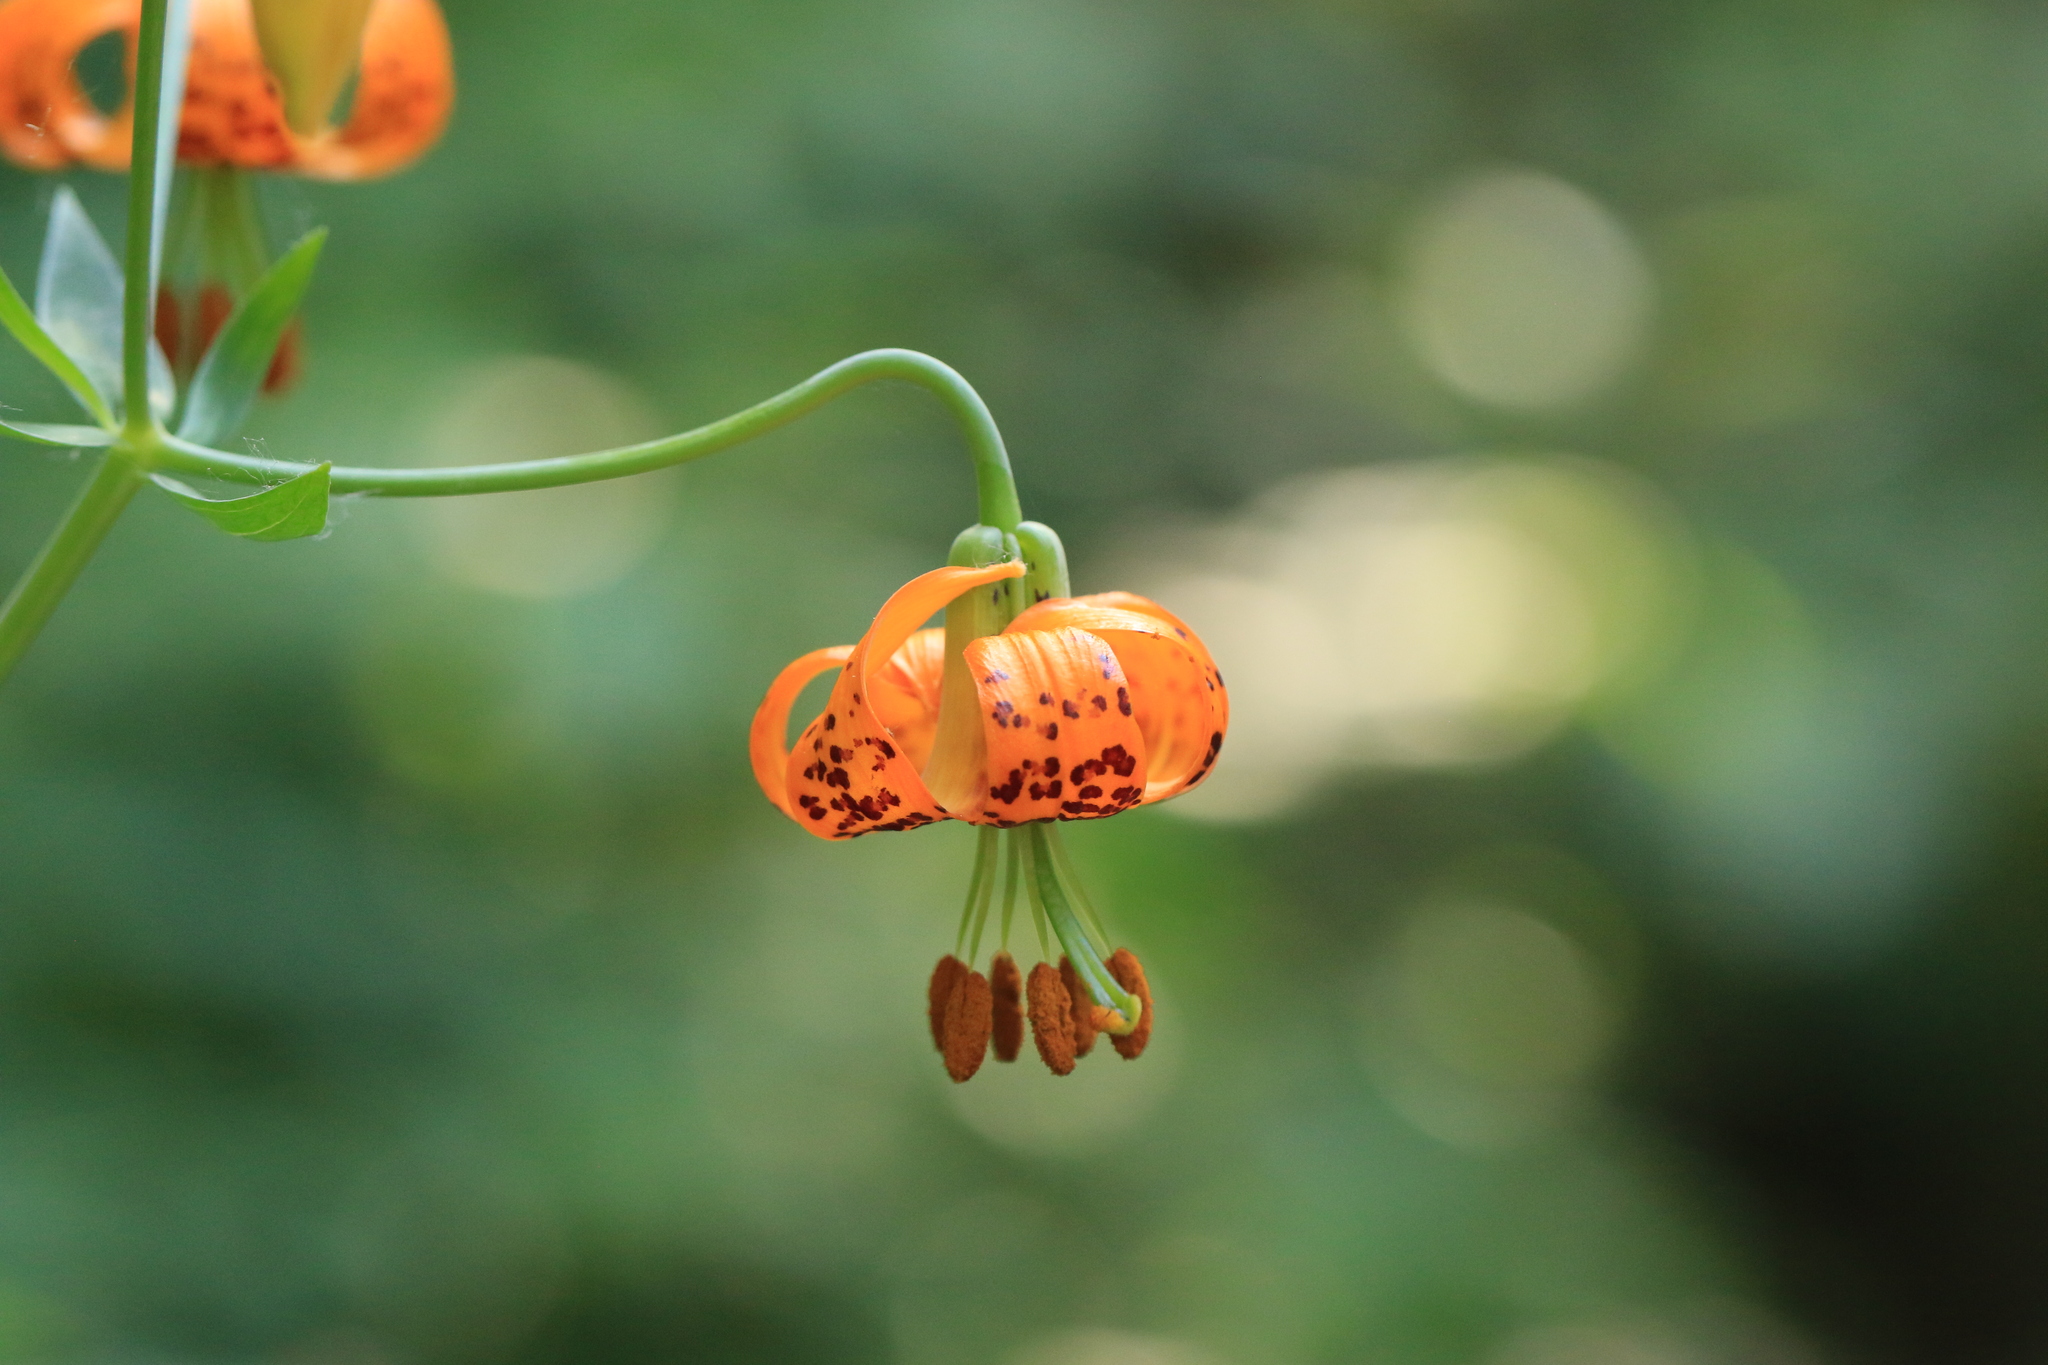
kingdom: Plantae
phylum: Tracheophyta
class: Liliopsida
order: Liliales
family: Liliaceae
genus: Lilium
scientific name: Lilium columbianum
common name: Columbia lily
